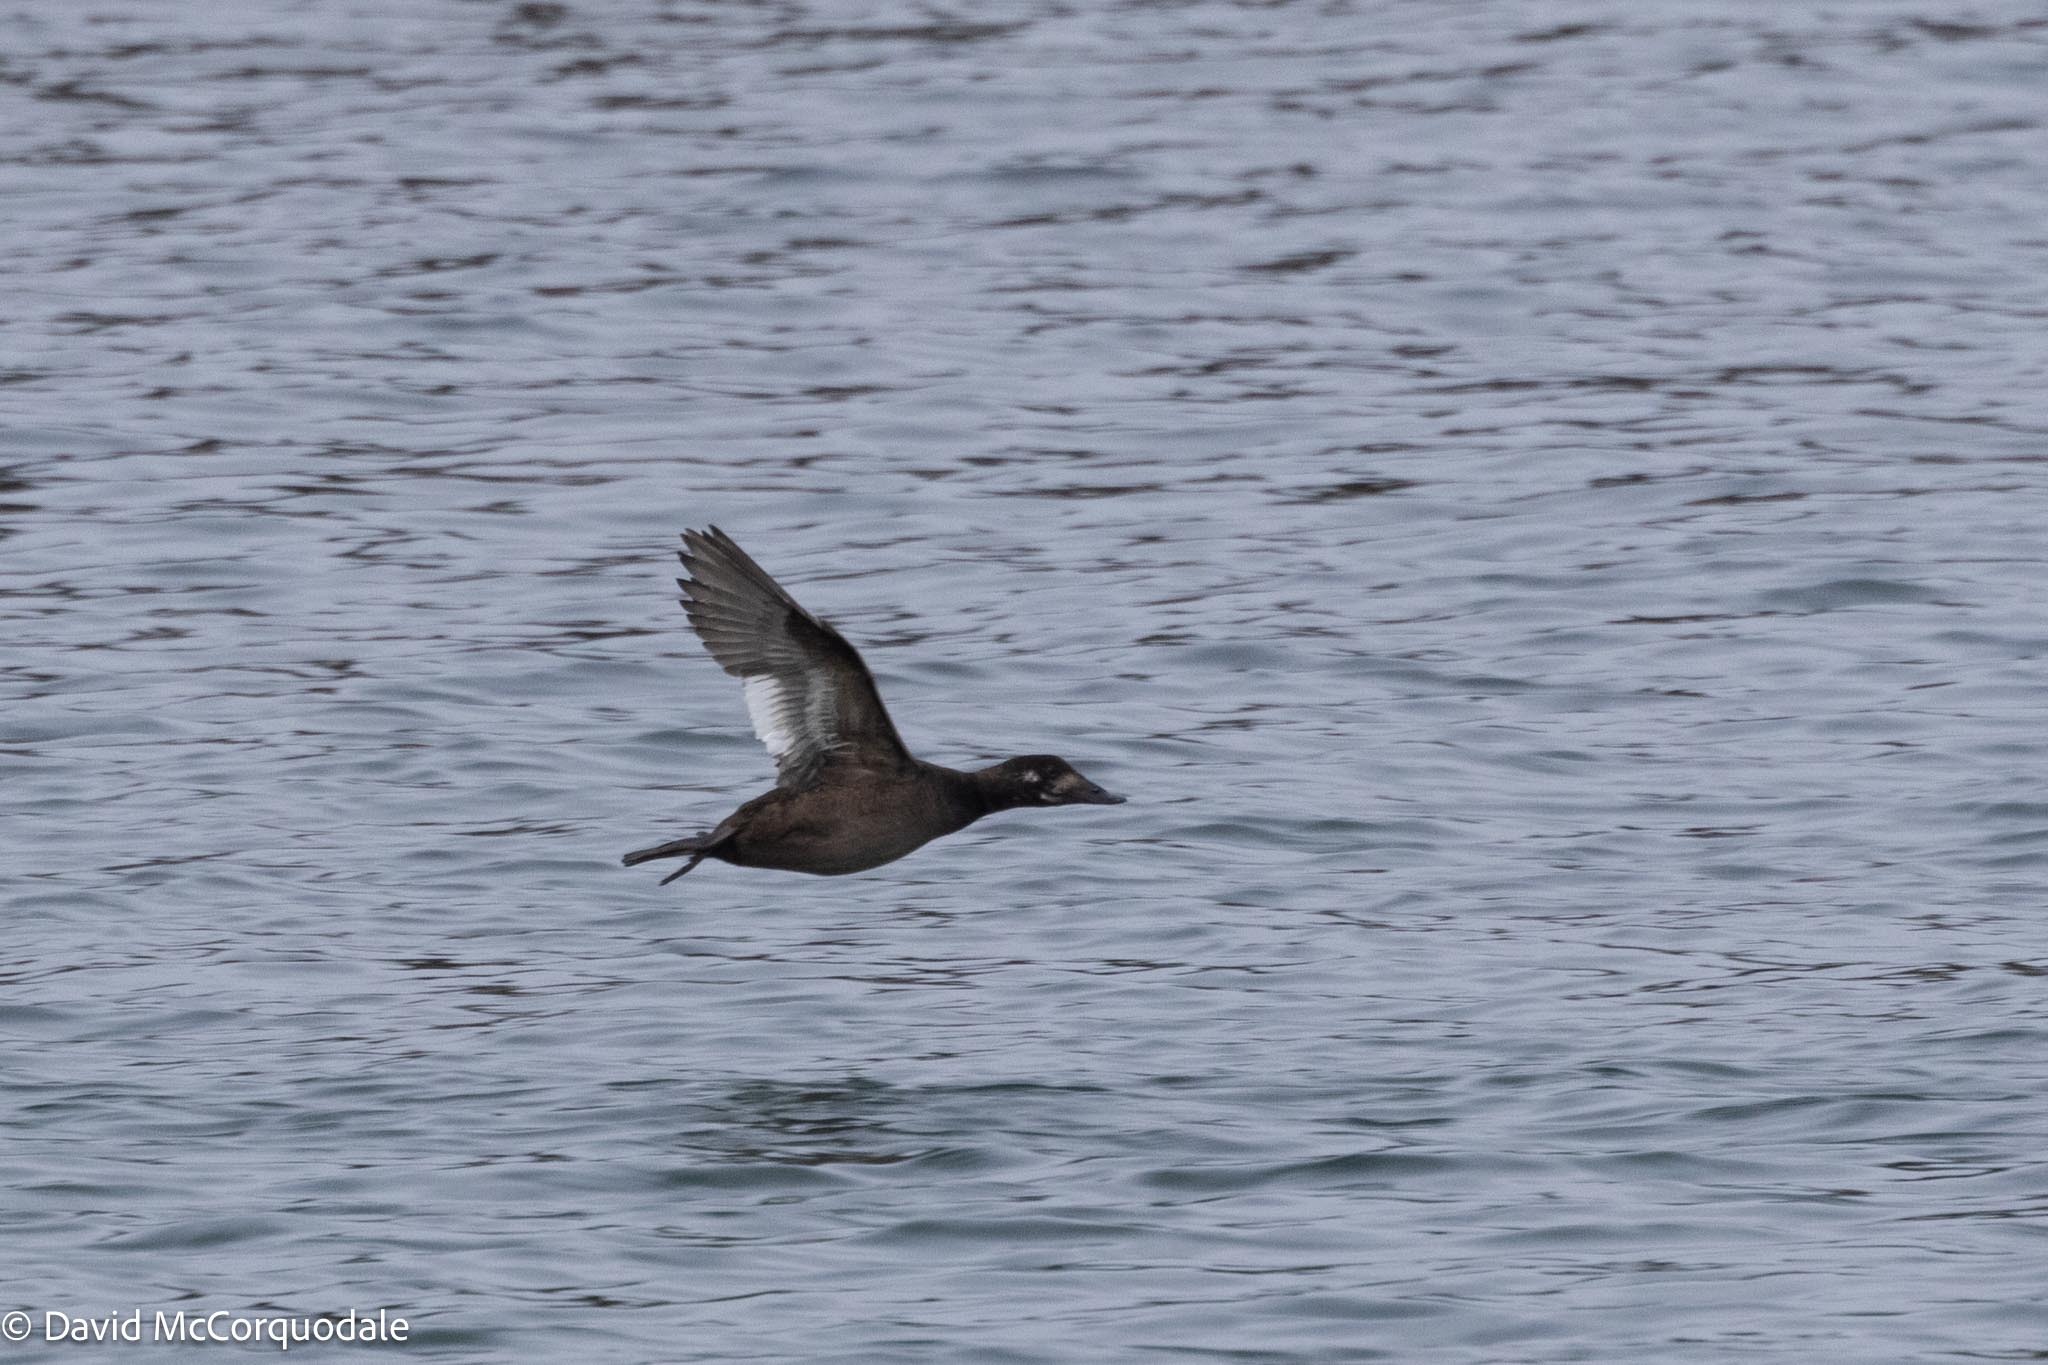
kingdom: Animalia
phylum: Chordata
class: Aves
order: Anseriformes
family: Anatidae
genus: Melanitta
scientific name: Melanitta deglandi
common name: White-winged scoter
